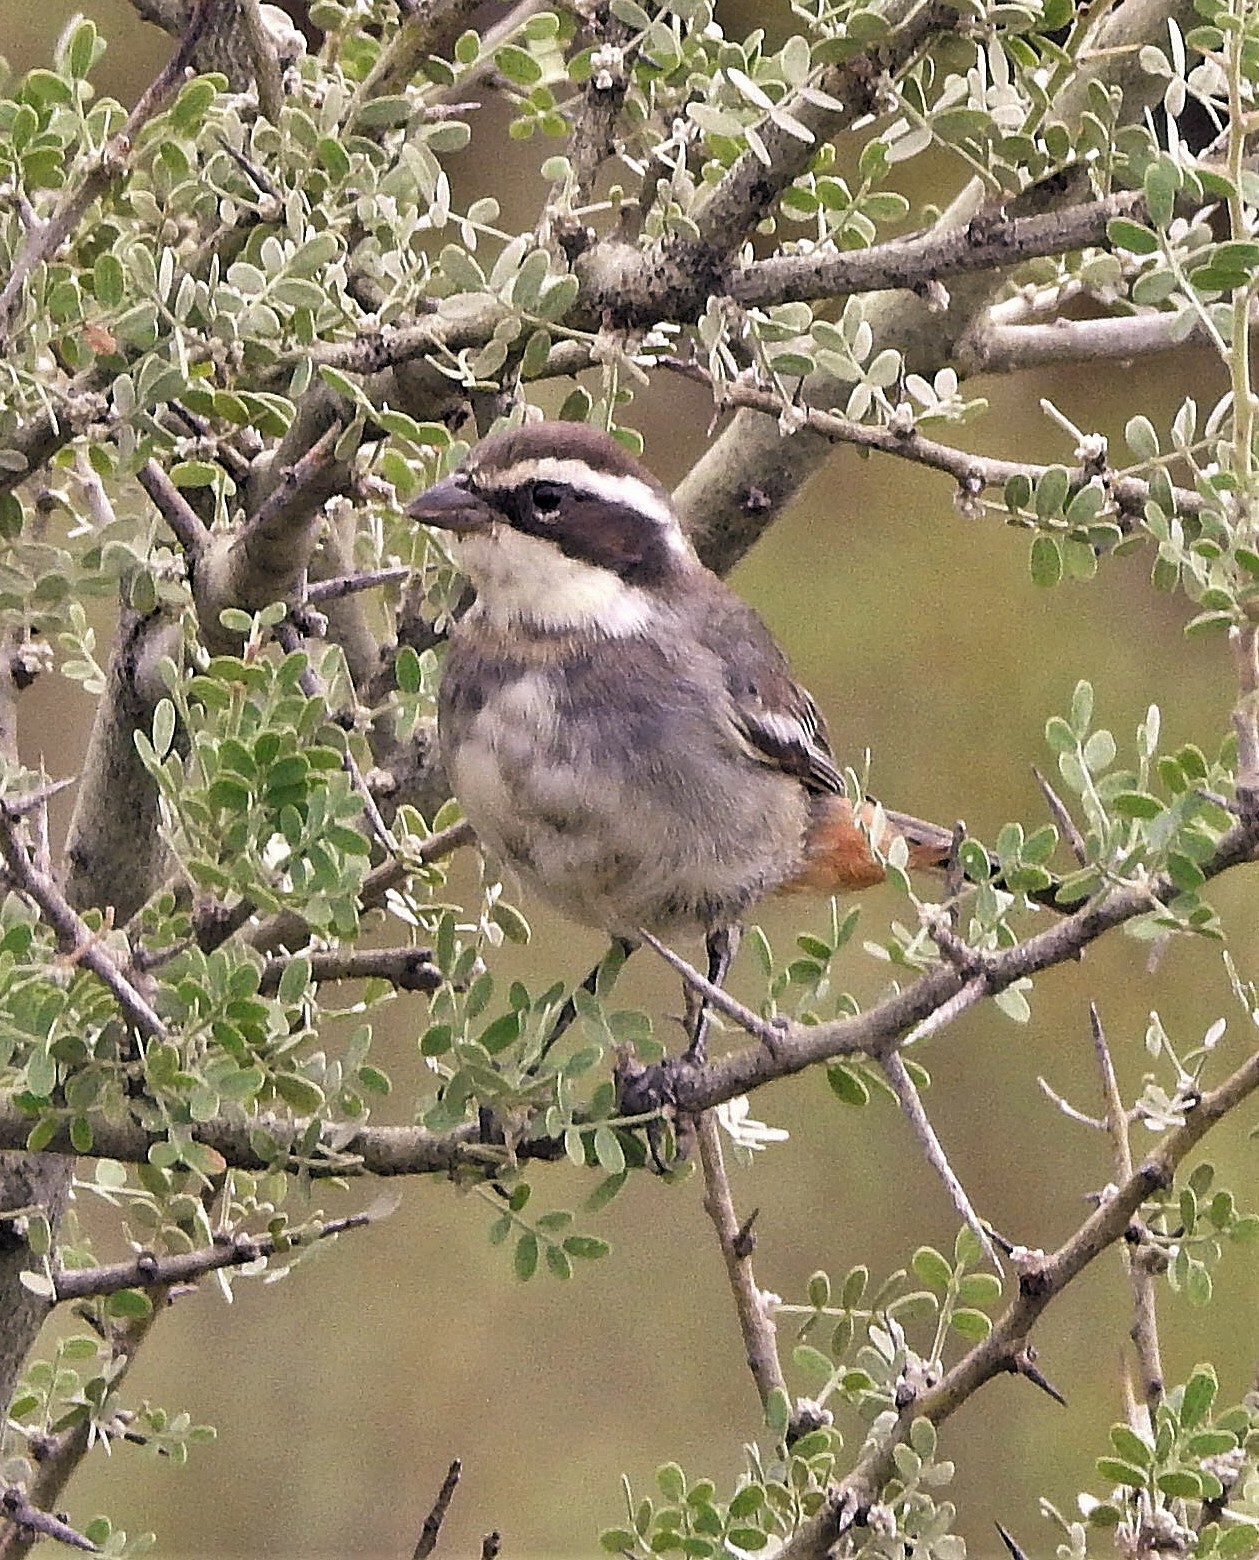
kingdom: Animalia
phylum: Chordata
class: Aves
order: Passeriformes
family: Thraupidae
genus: Microspingus
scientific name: Microspingus torquatus
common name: Ringed warbling-finch
